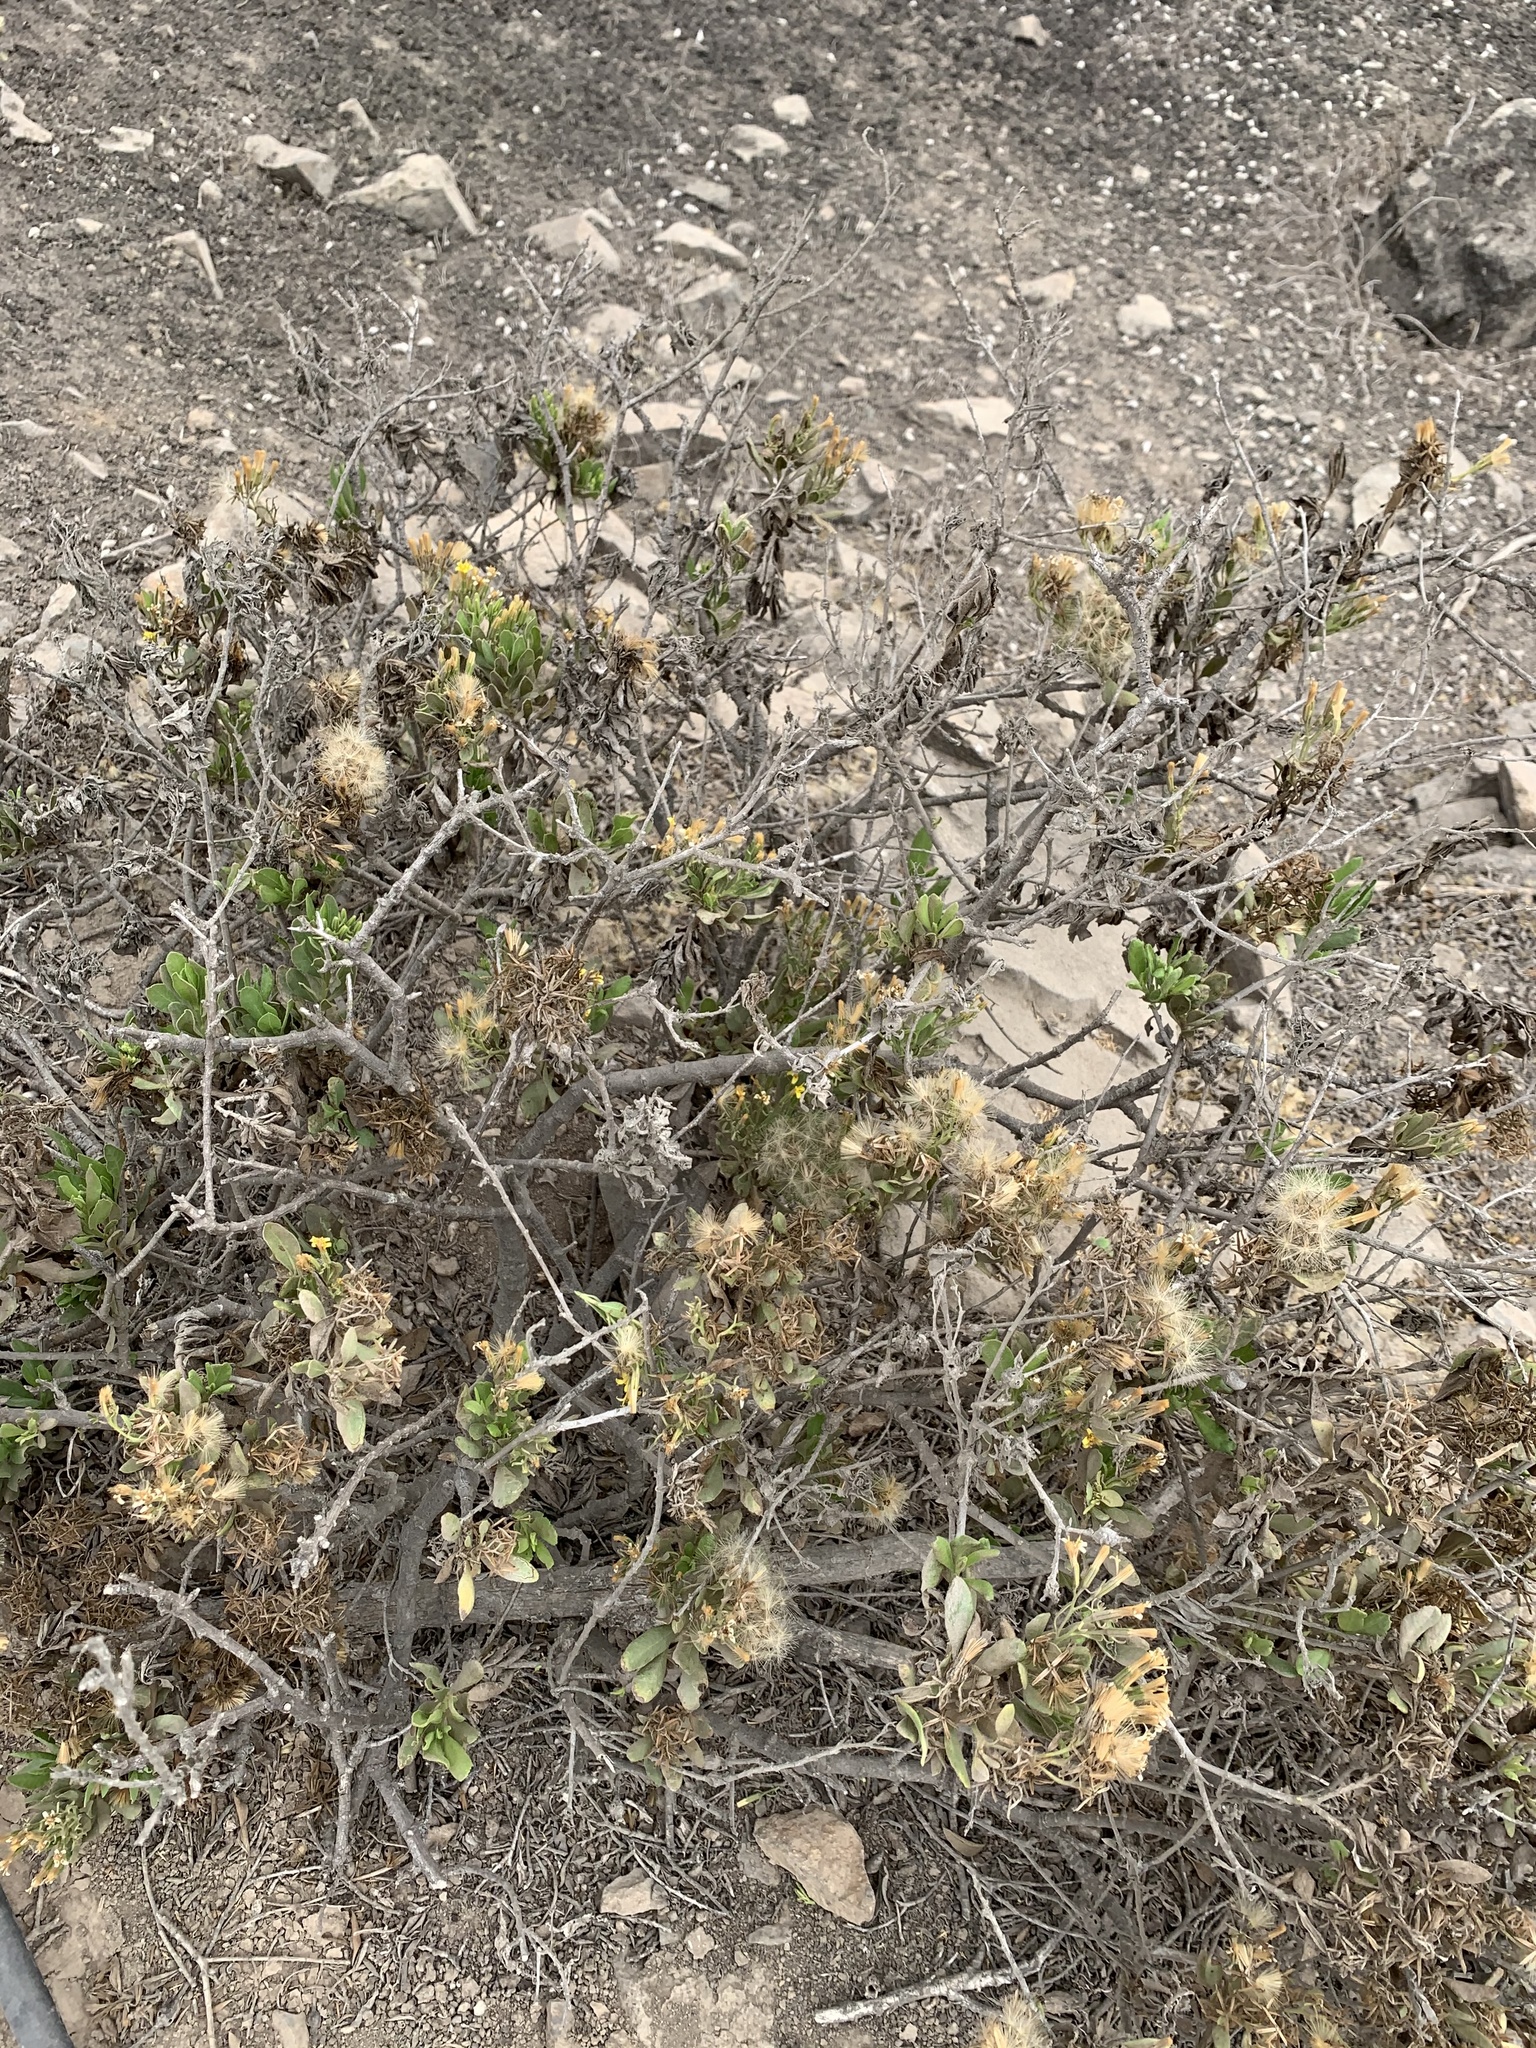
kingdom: Plantae
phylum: Tracheophyta
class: Magnoliopsida
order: Asterales
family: Asteraceae
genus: Trixis
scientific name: Trixis cacalioides
